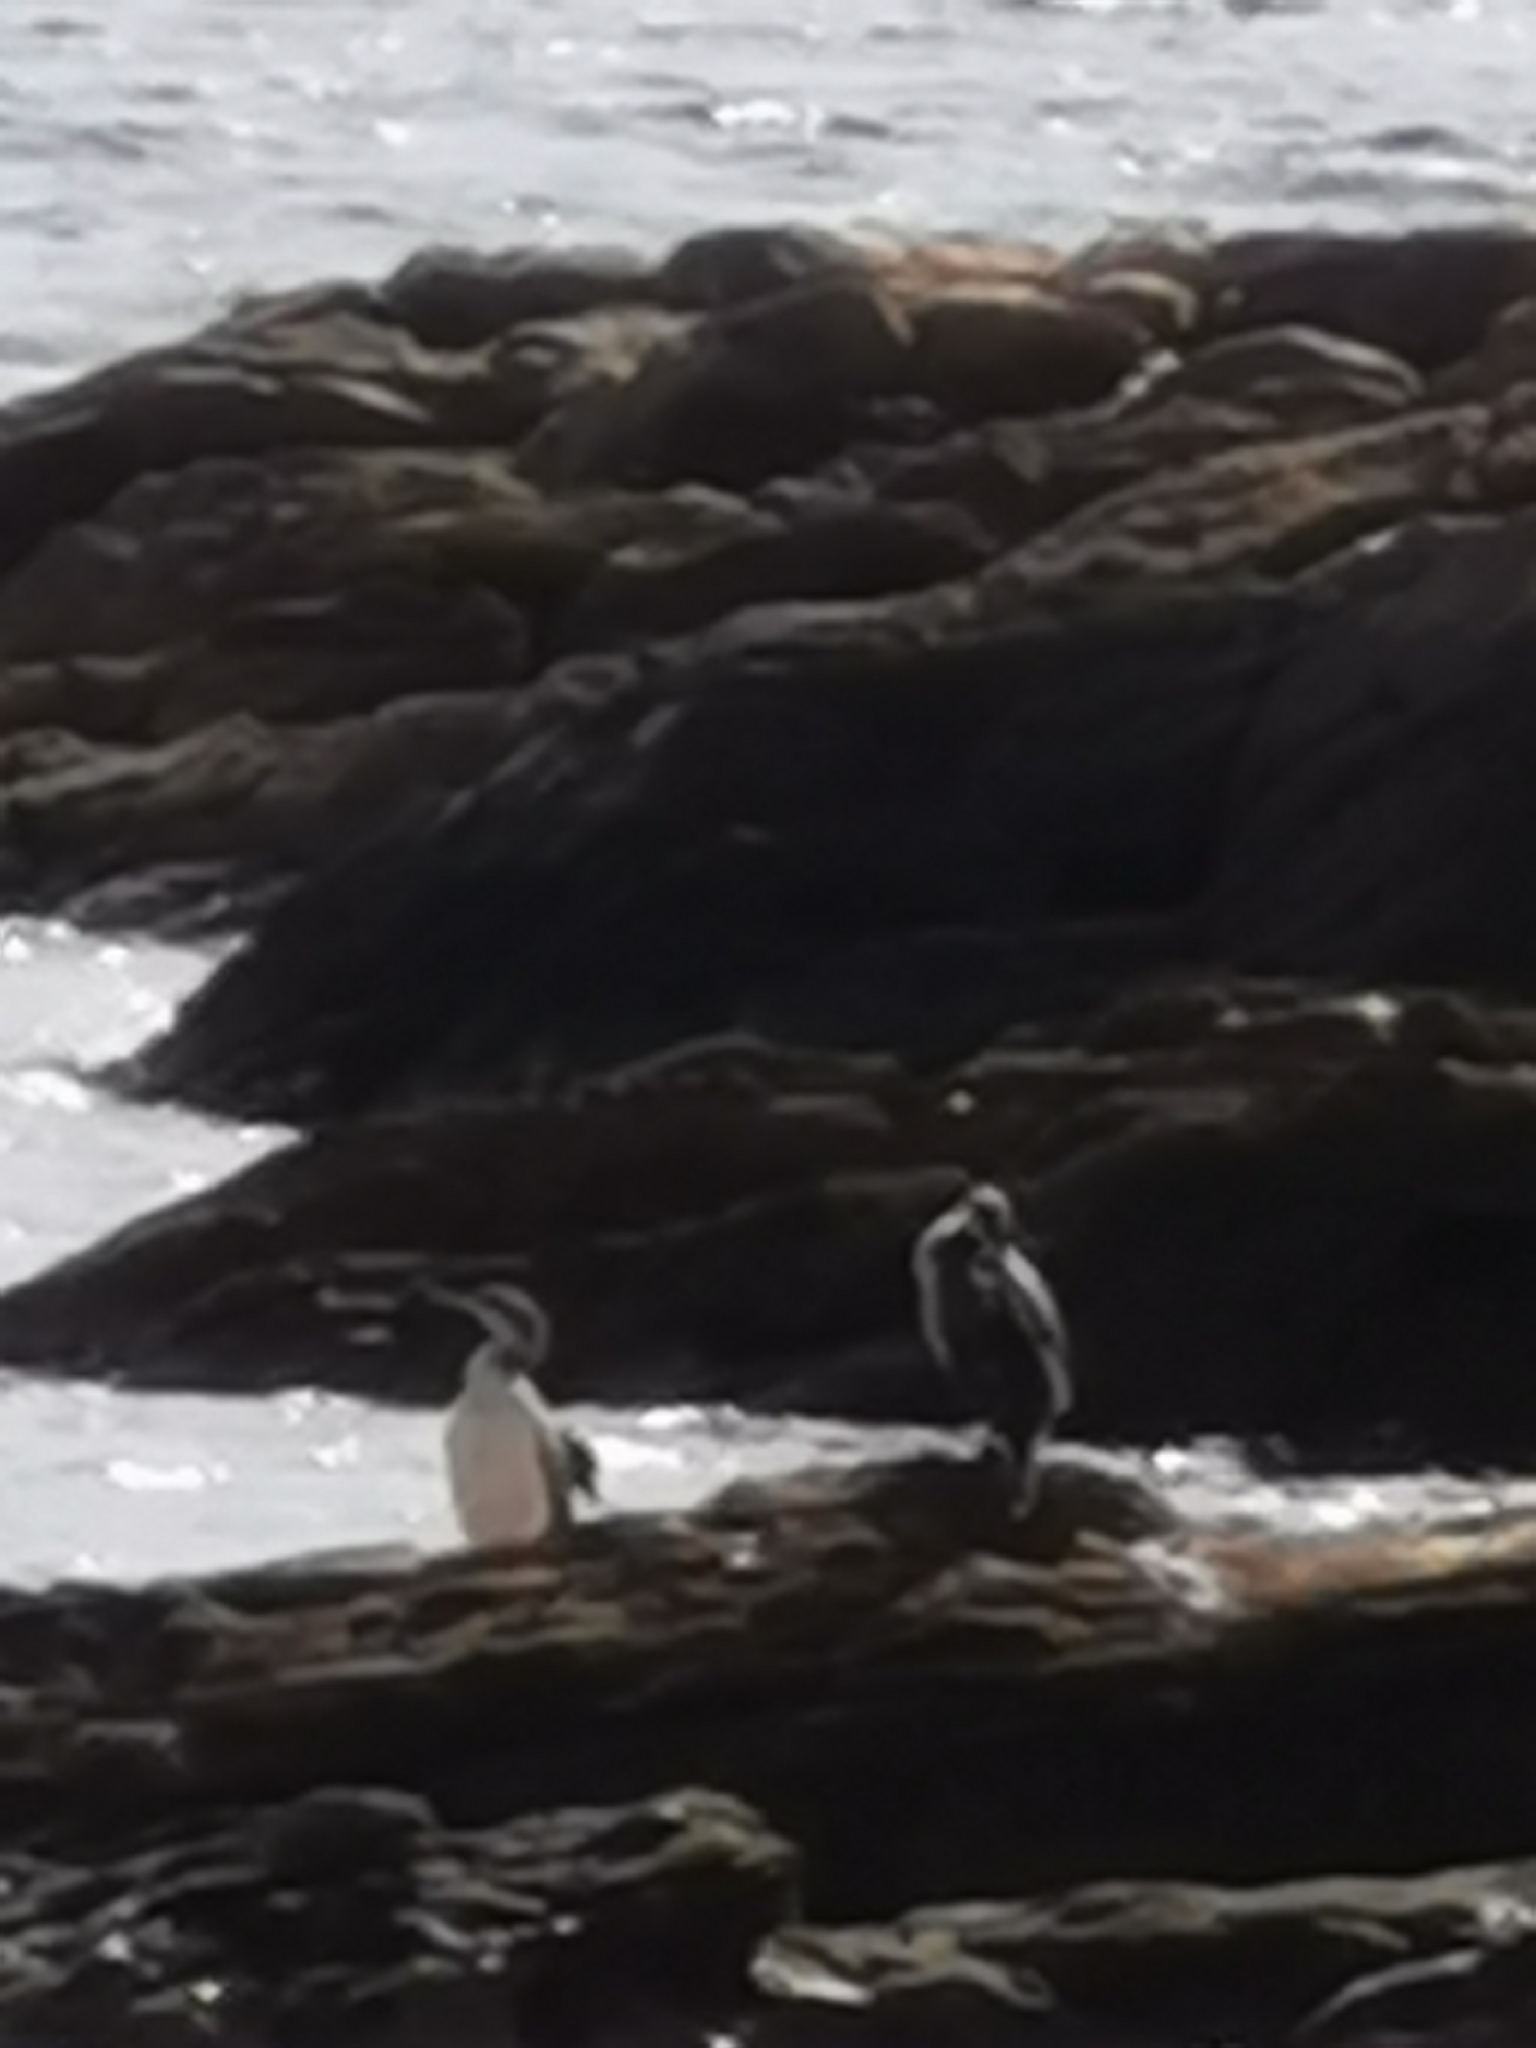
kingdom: Animalia
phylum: Chordata
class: Aves
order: Suliformes
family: Phalacrocoracidae
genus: Phalacrocorax
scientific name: Phalacrocorax aristotelis
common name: European shag
